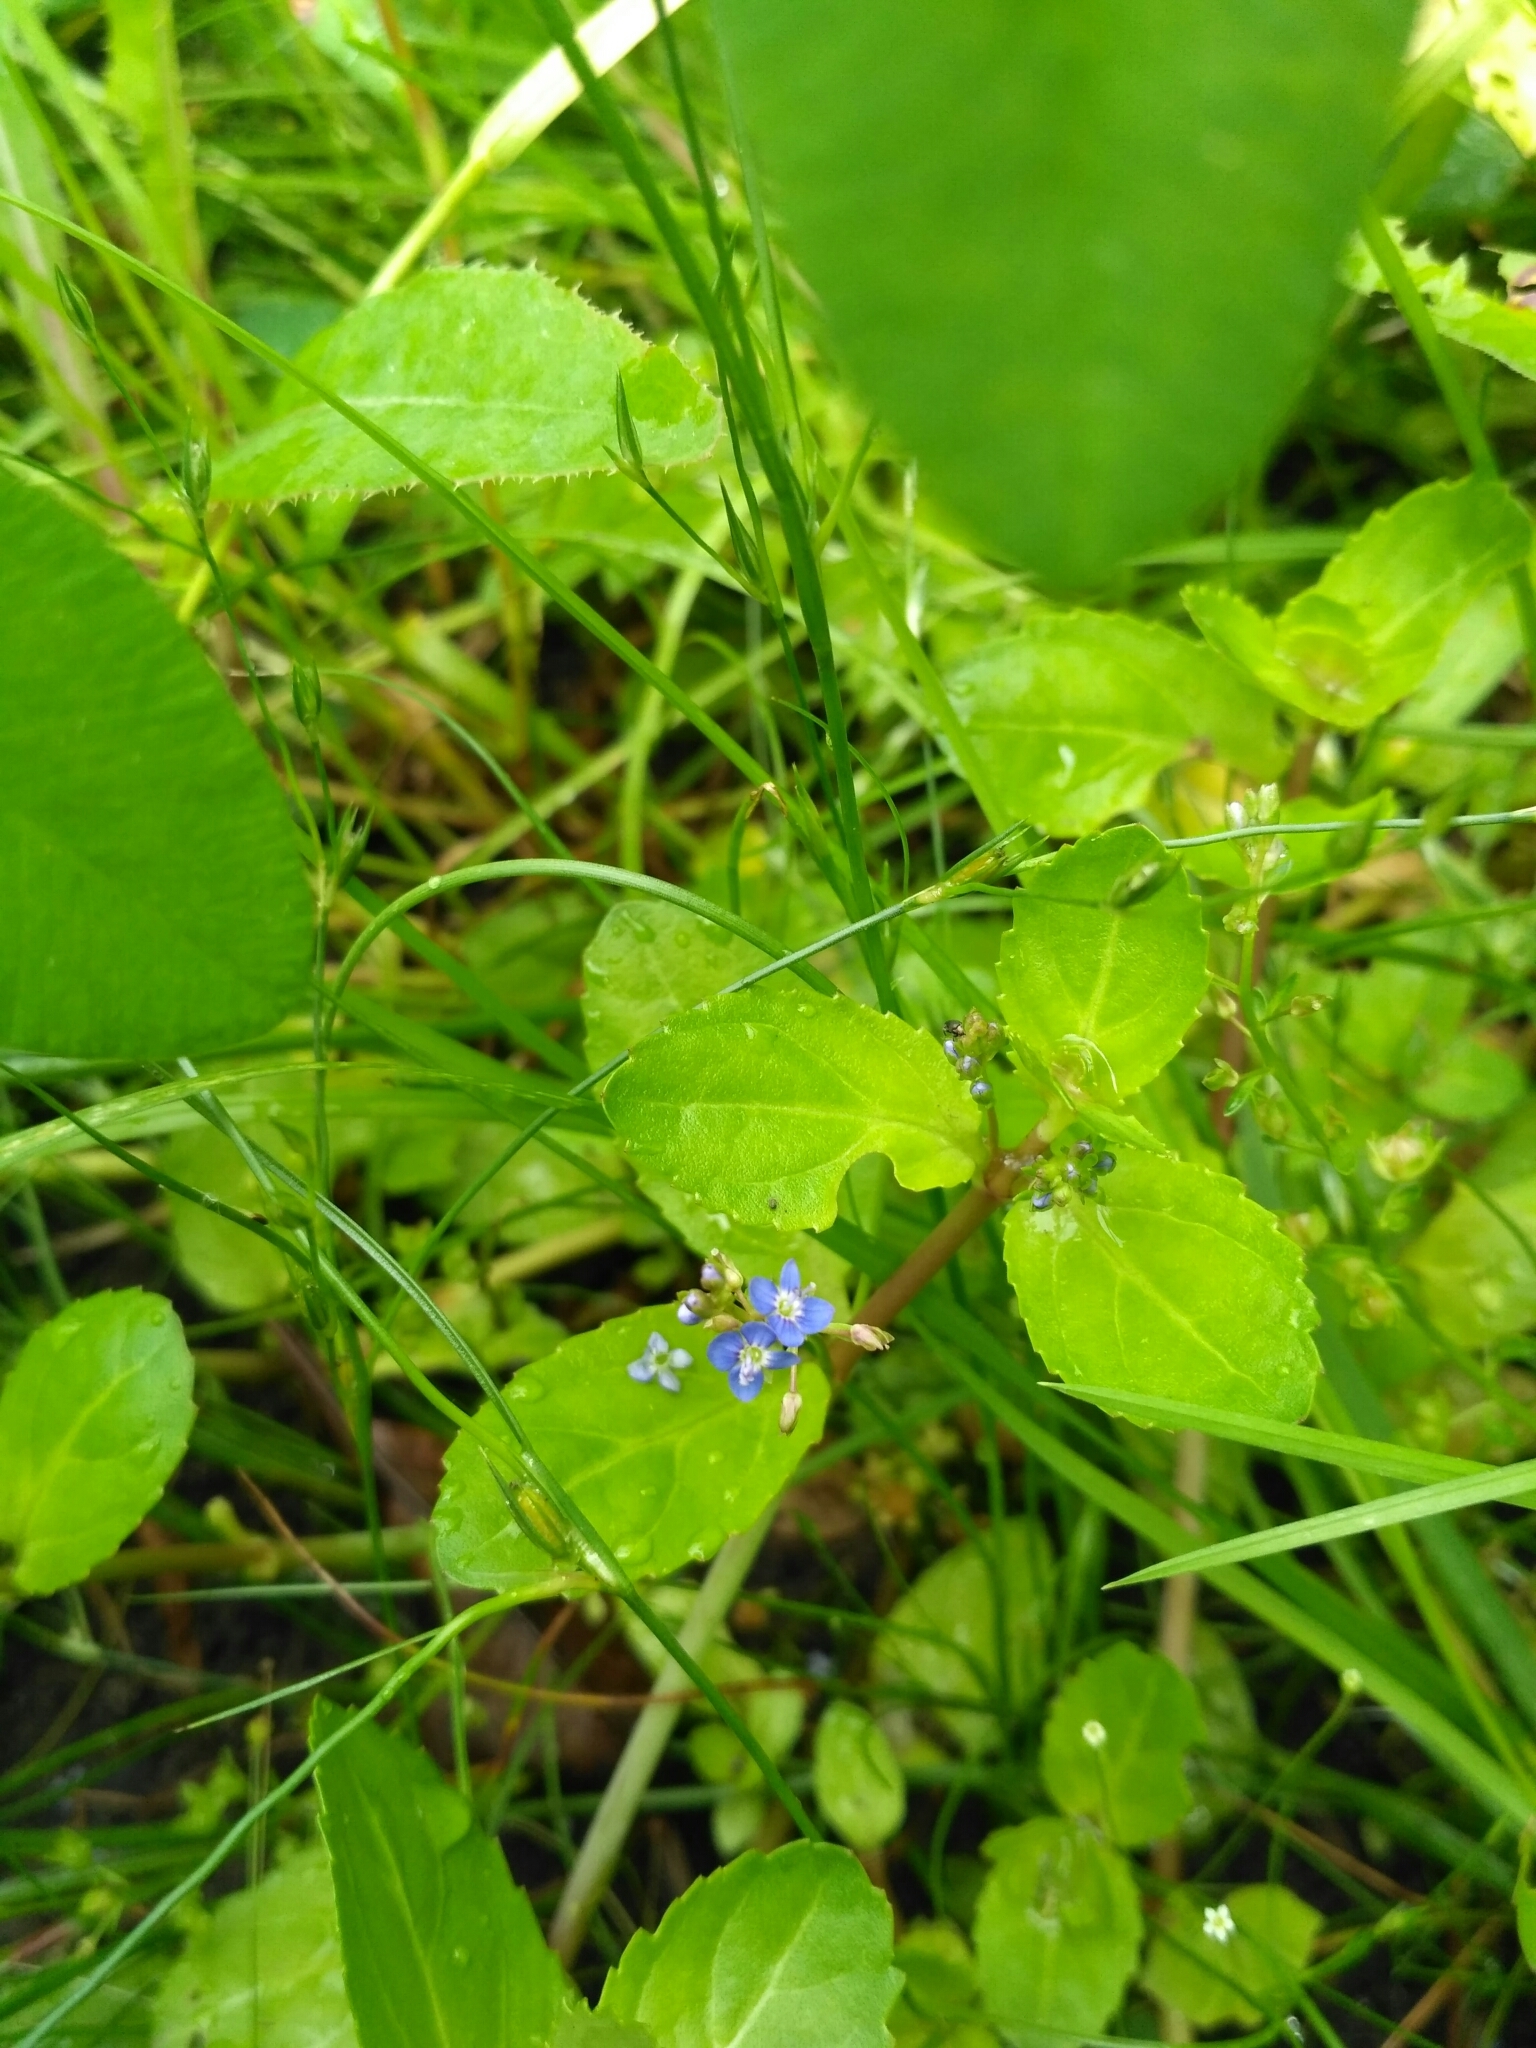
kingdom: Plantae
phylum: Tracheophyta
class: Magnoliopsida
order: Lamiales
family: Plantaginaceae
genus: Veronica
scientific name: Veronica beccabunga
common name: Brooklime
